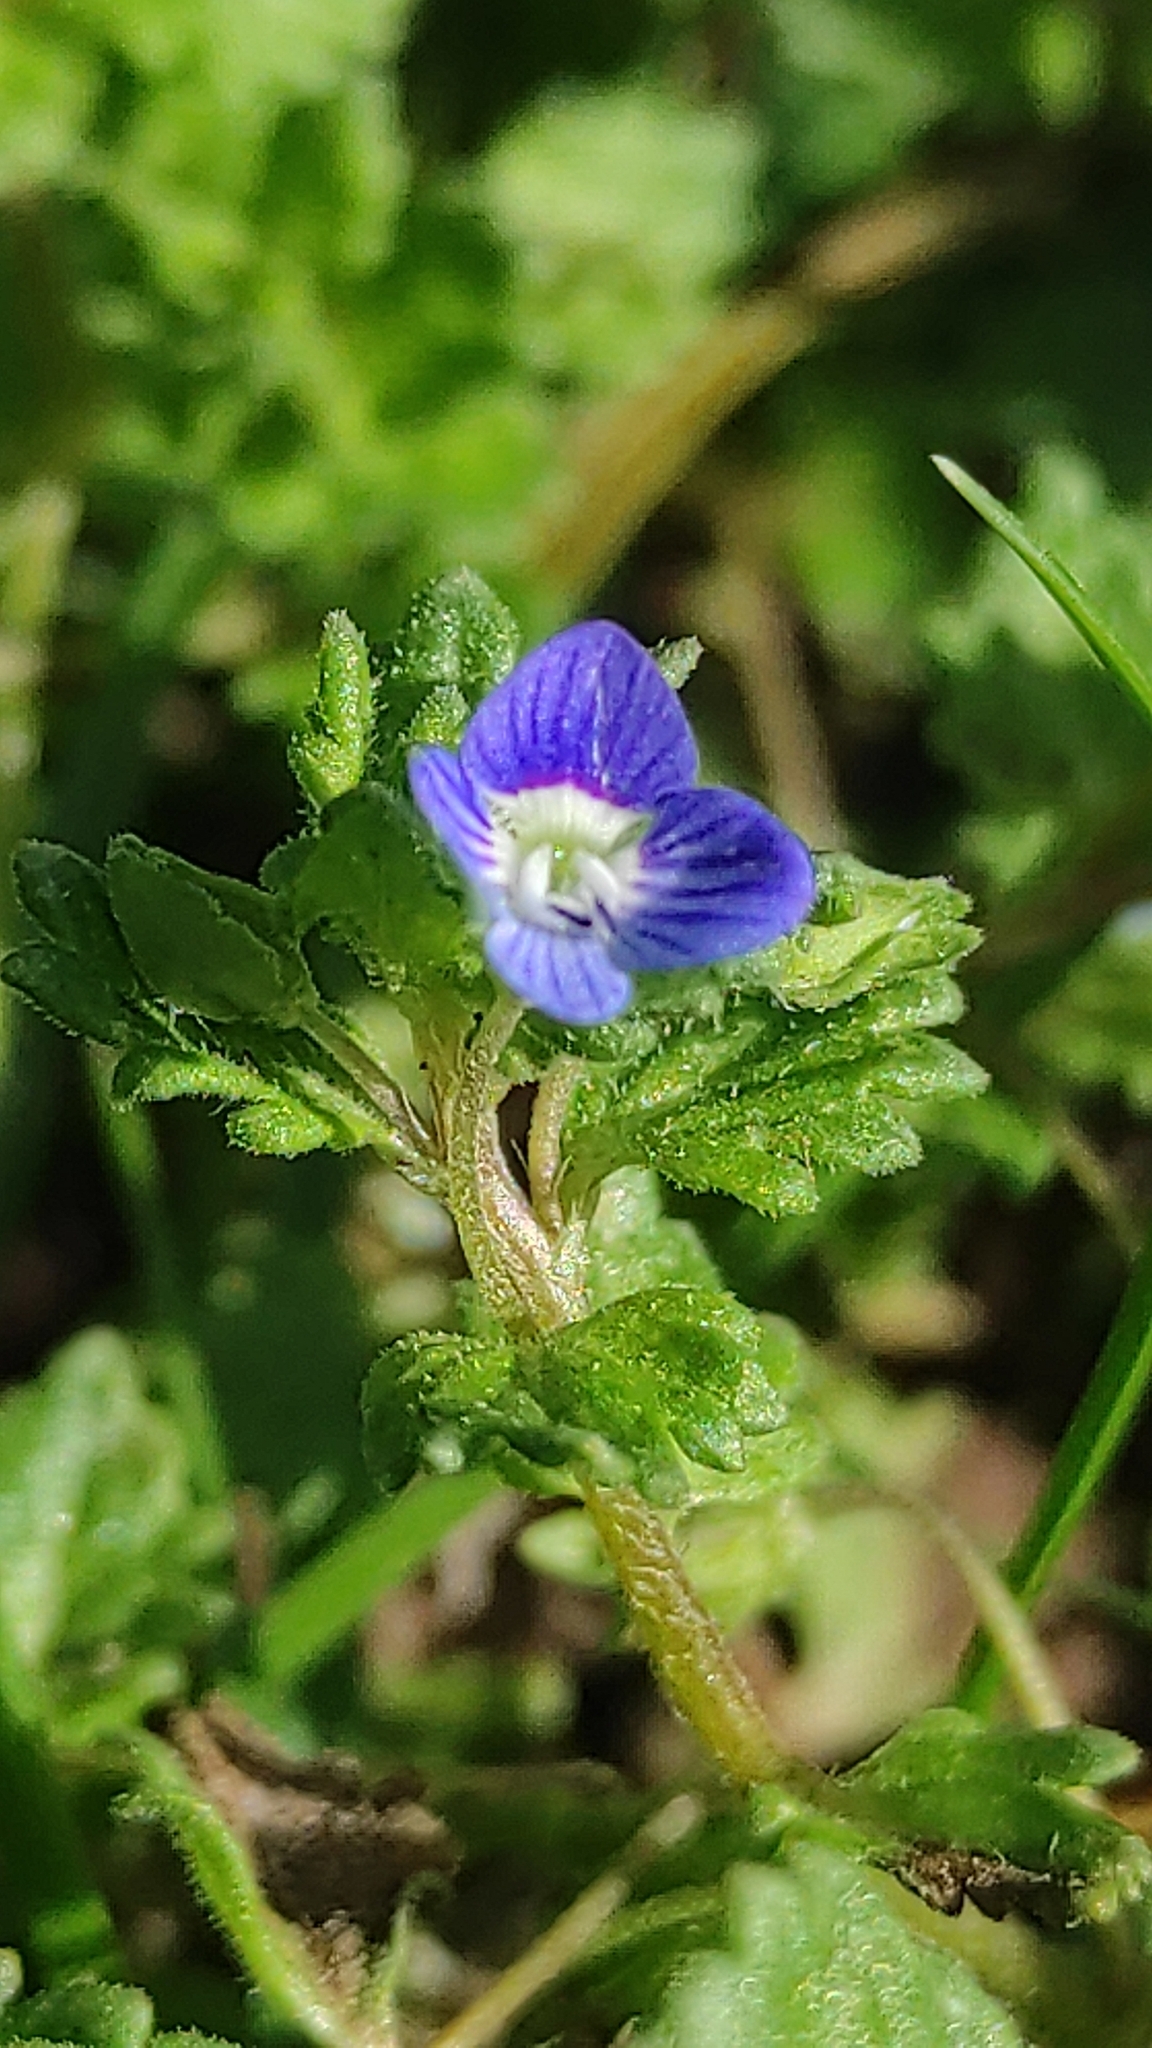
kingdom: Plantae
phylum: Tracheophyta
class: Magnoliopsida
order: Lamiales
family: Plantaginaceae
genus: Veronica
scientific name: Veronica polita
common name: Grey field-speedwell
